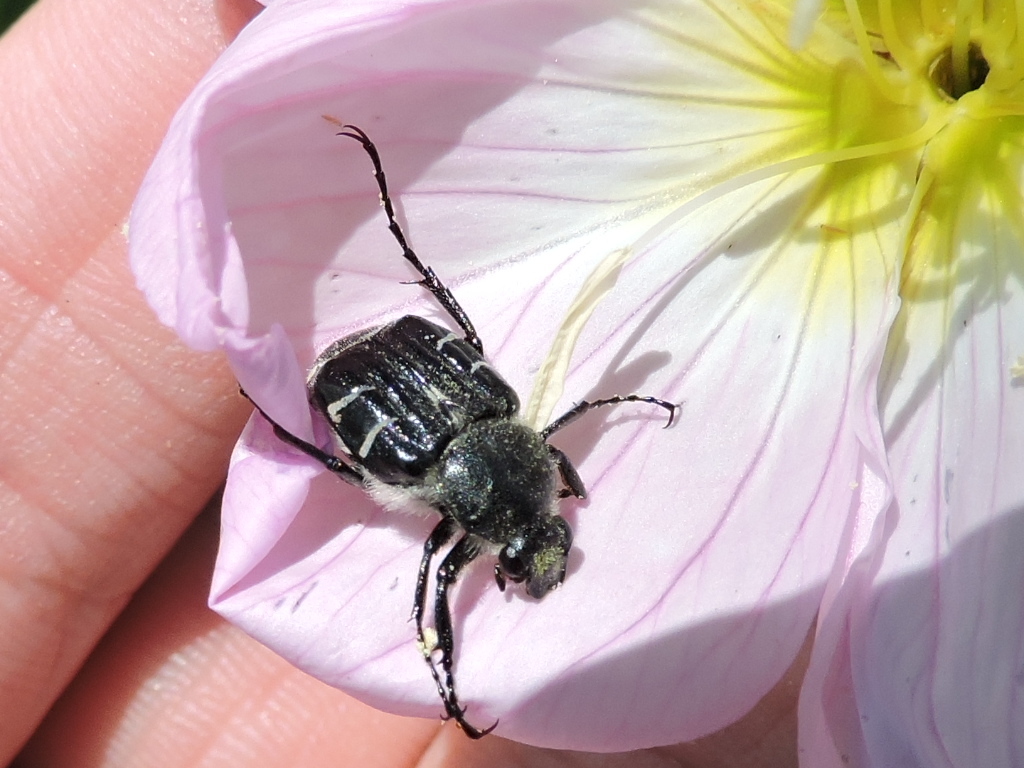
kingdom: Animalia
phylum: Arthropoda
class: Insecta
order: Coleoptera
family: Scarabaeidae
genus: Trichiotinus
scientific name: Trichiotinus texanus
